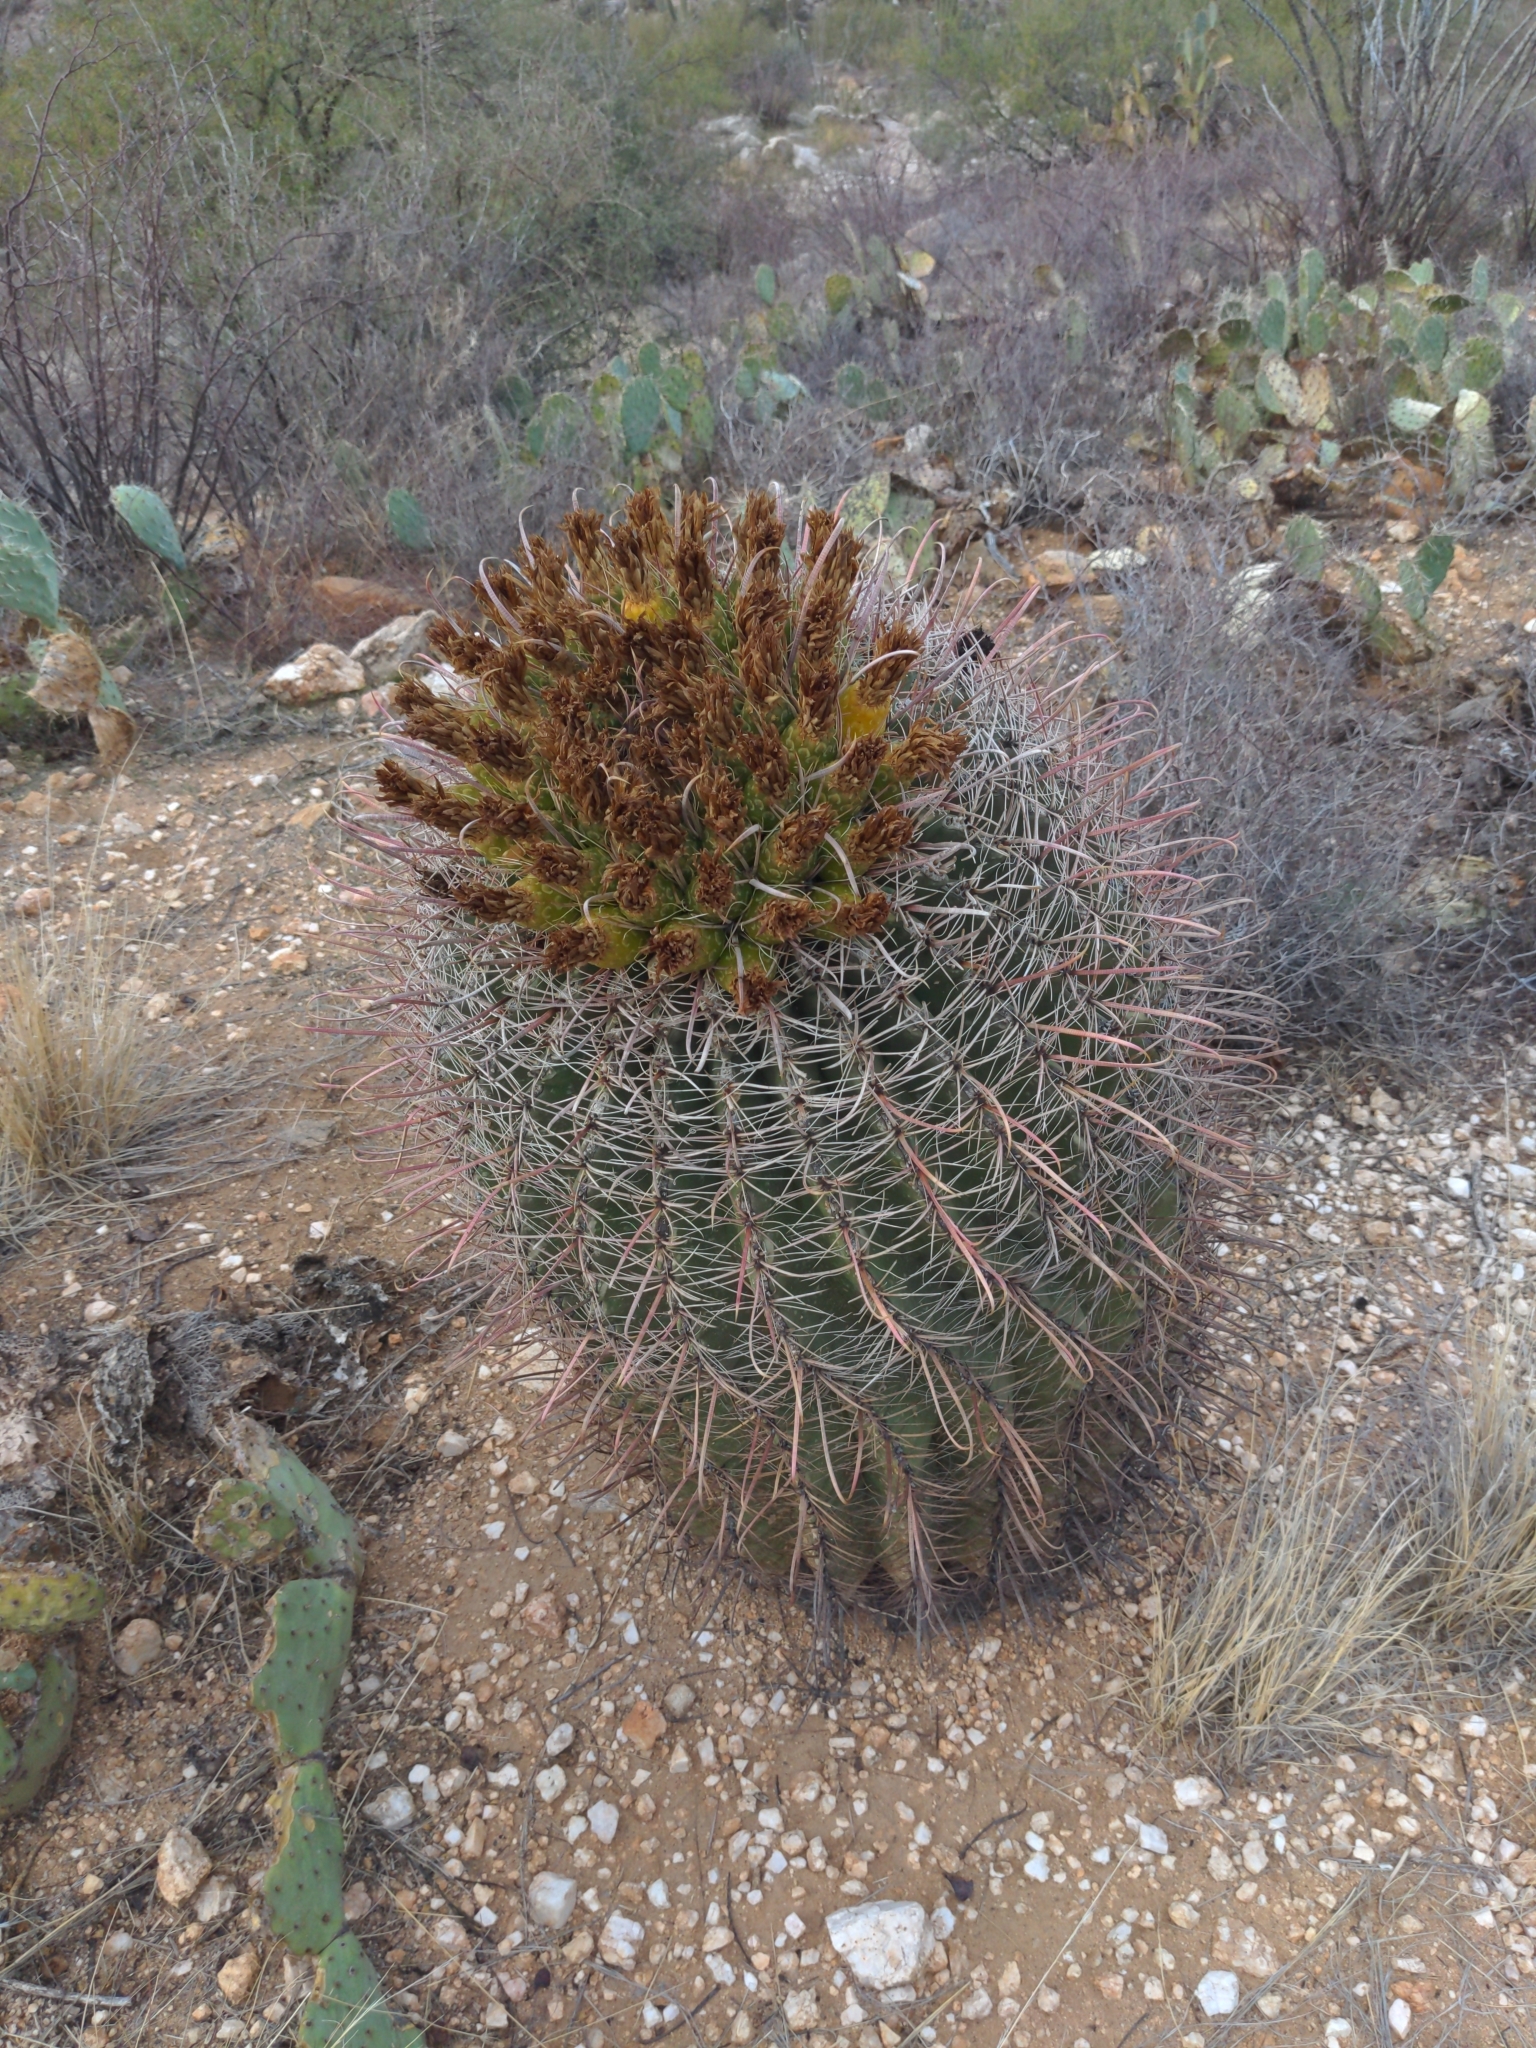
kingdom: Plantae
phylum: Tracheophyta
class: Magnoliopsida
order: Caryophyllales
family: Cactaceae
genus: Ferocactus
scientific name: Ferocactus wislizeni
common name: Candy barrel cactus
